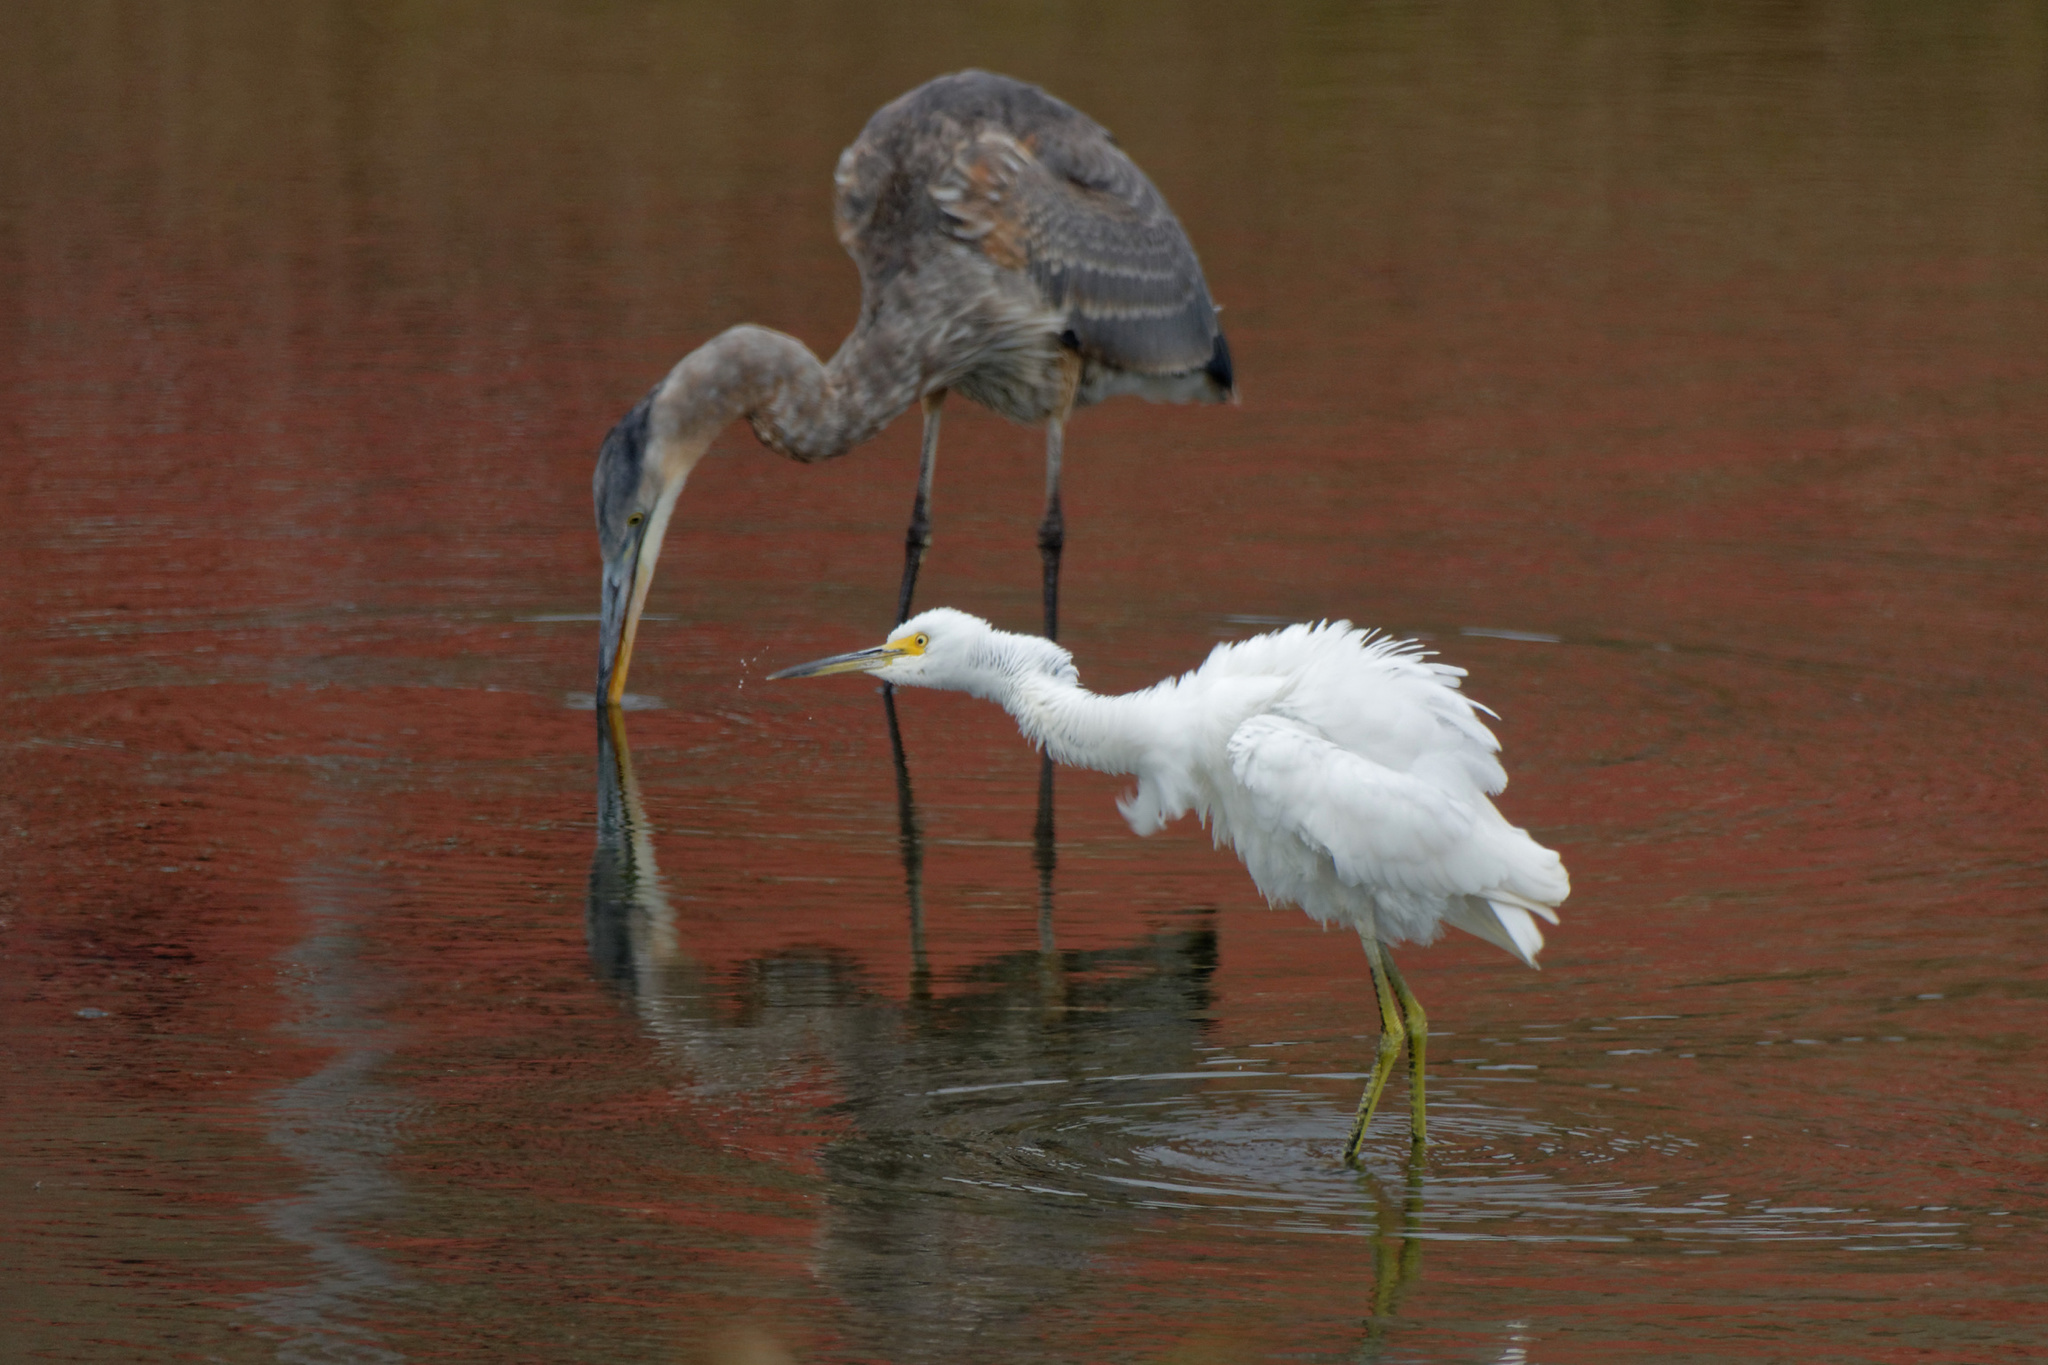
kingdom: Animalia
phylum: Chordata
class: Aves
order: Pelecaniformes
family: Ardeidae
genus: Egretta
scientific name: Egretta thula
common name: Snowy egret
